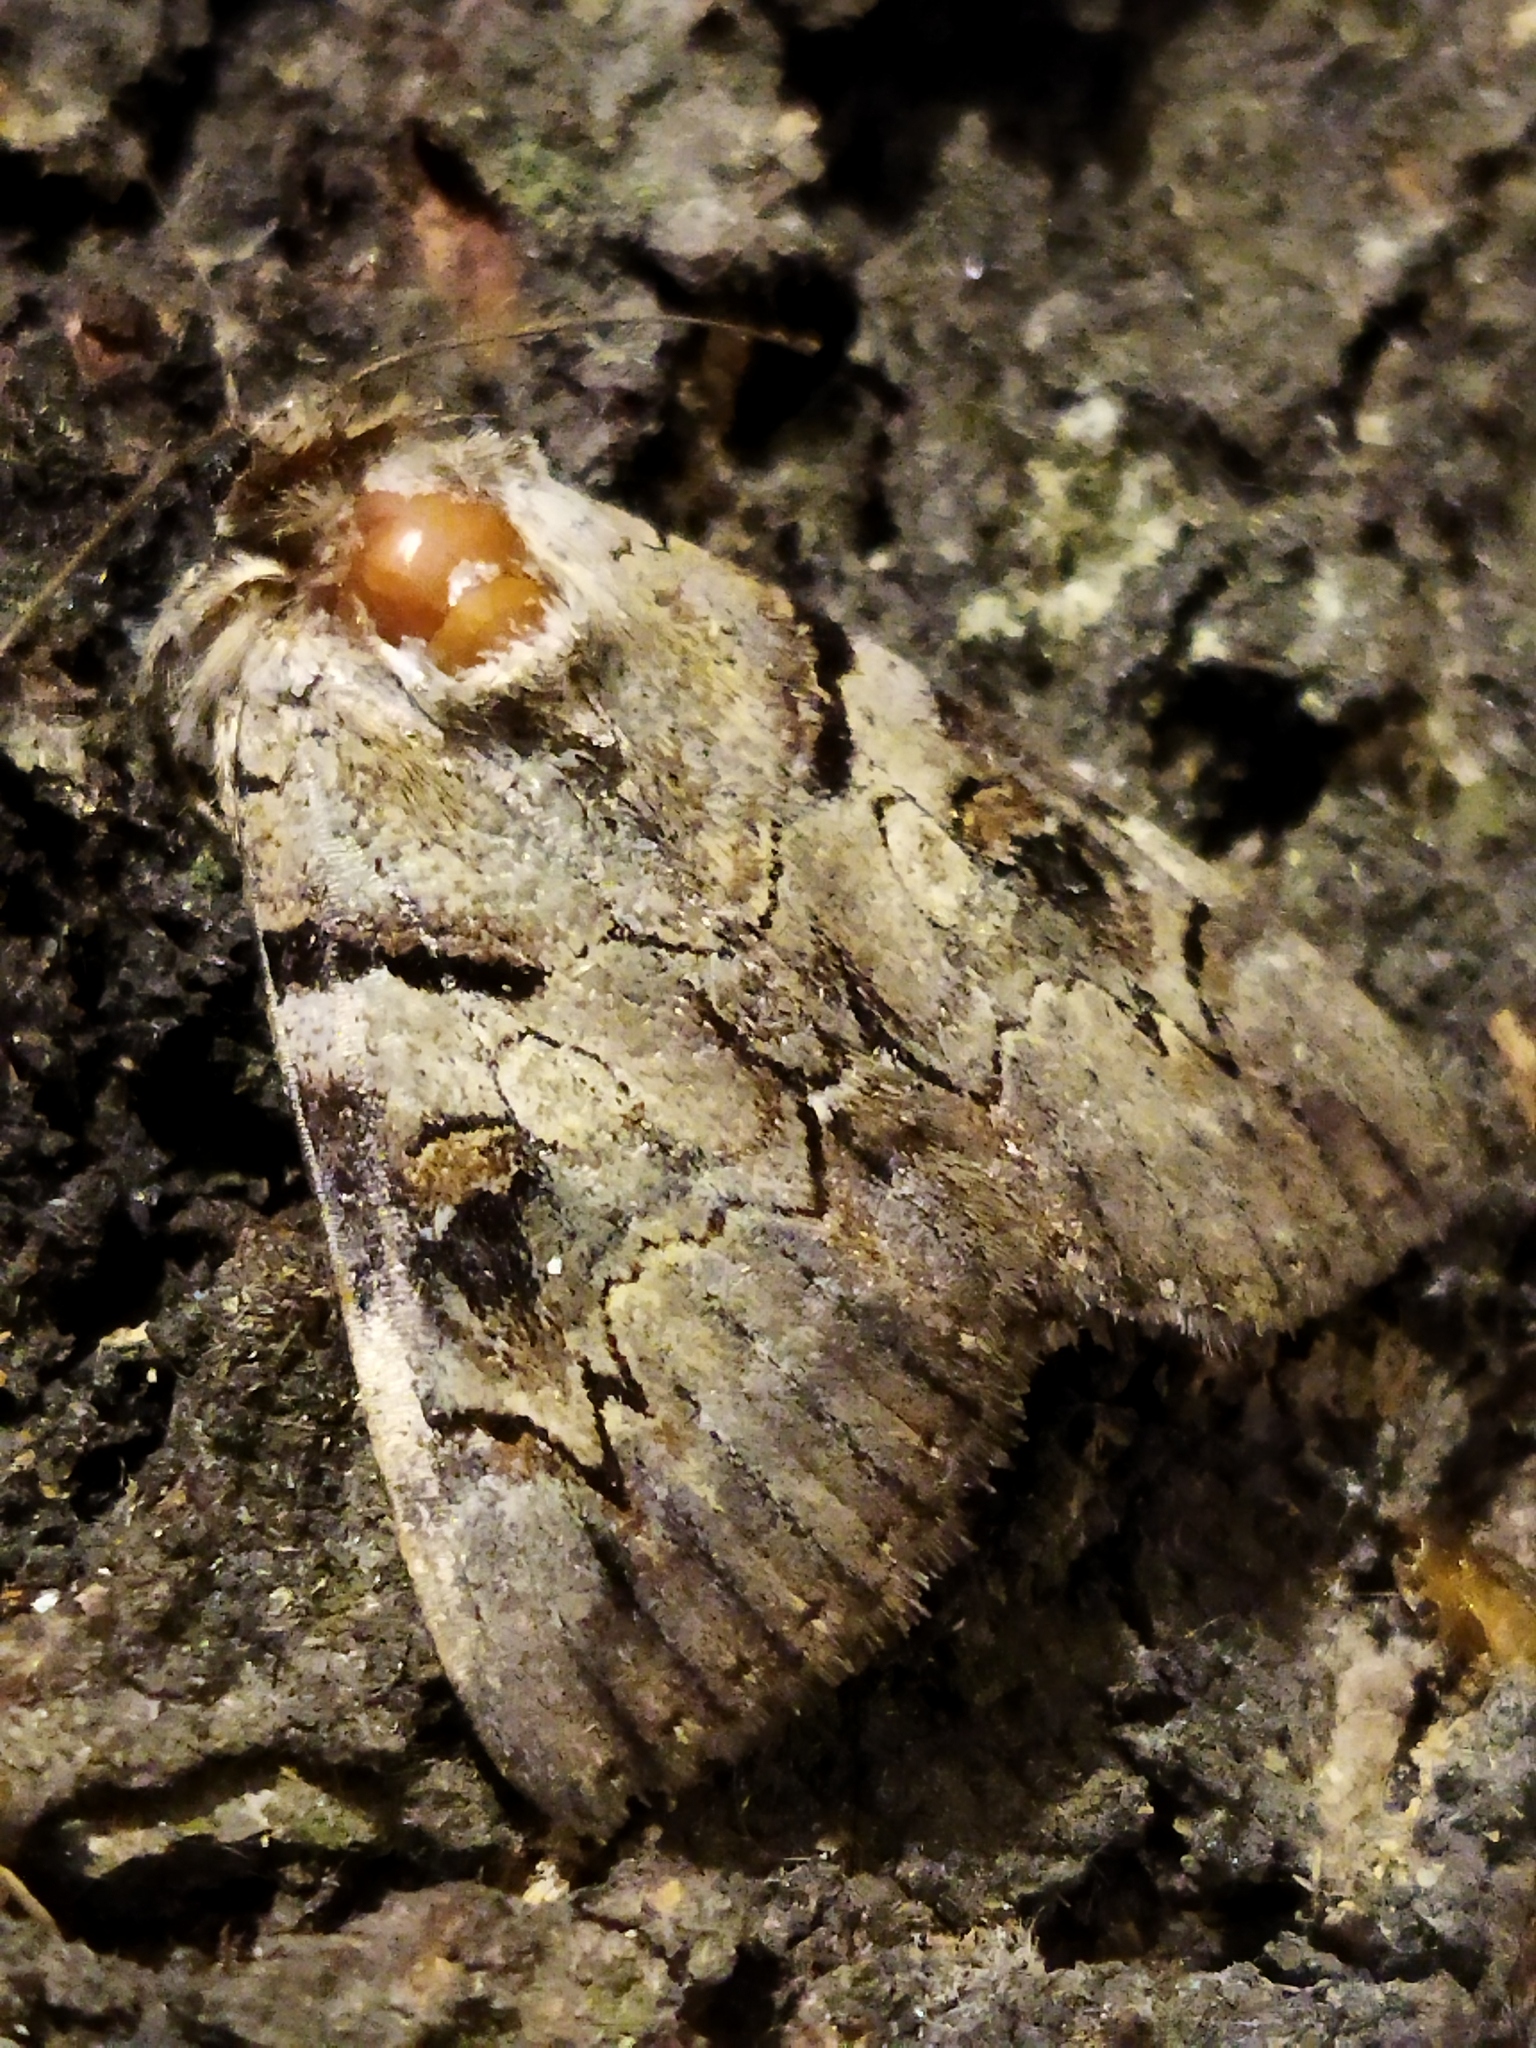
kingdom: Animalia
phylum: Arthropoda
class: Insecta
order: Lepidoptera
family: Erebidae
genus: Catocala
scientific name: Catocala hymenaea
